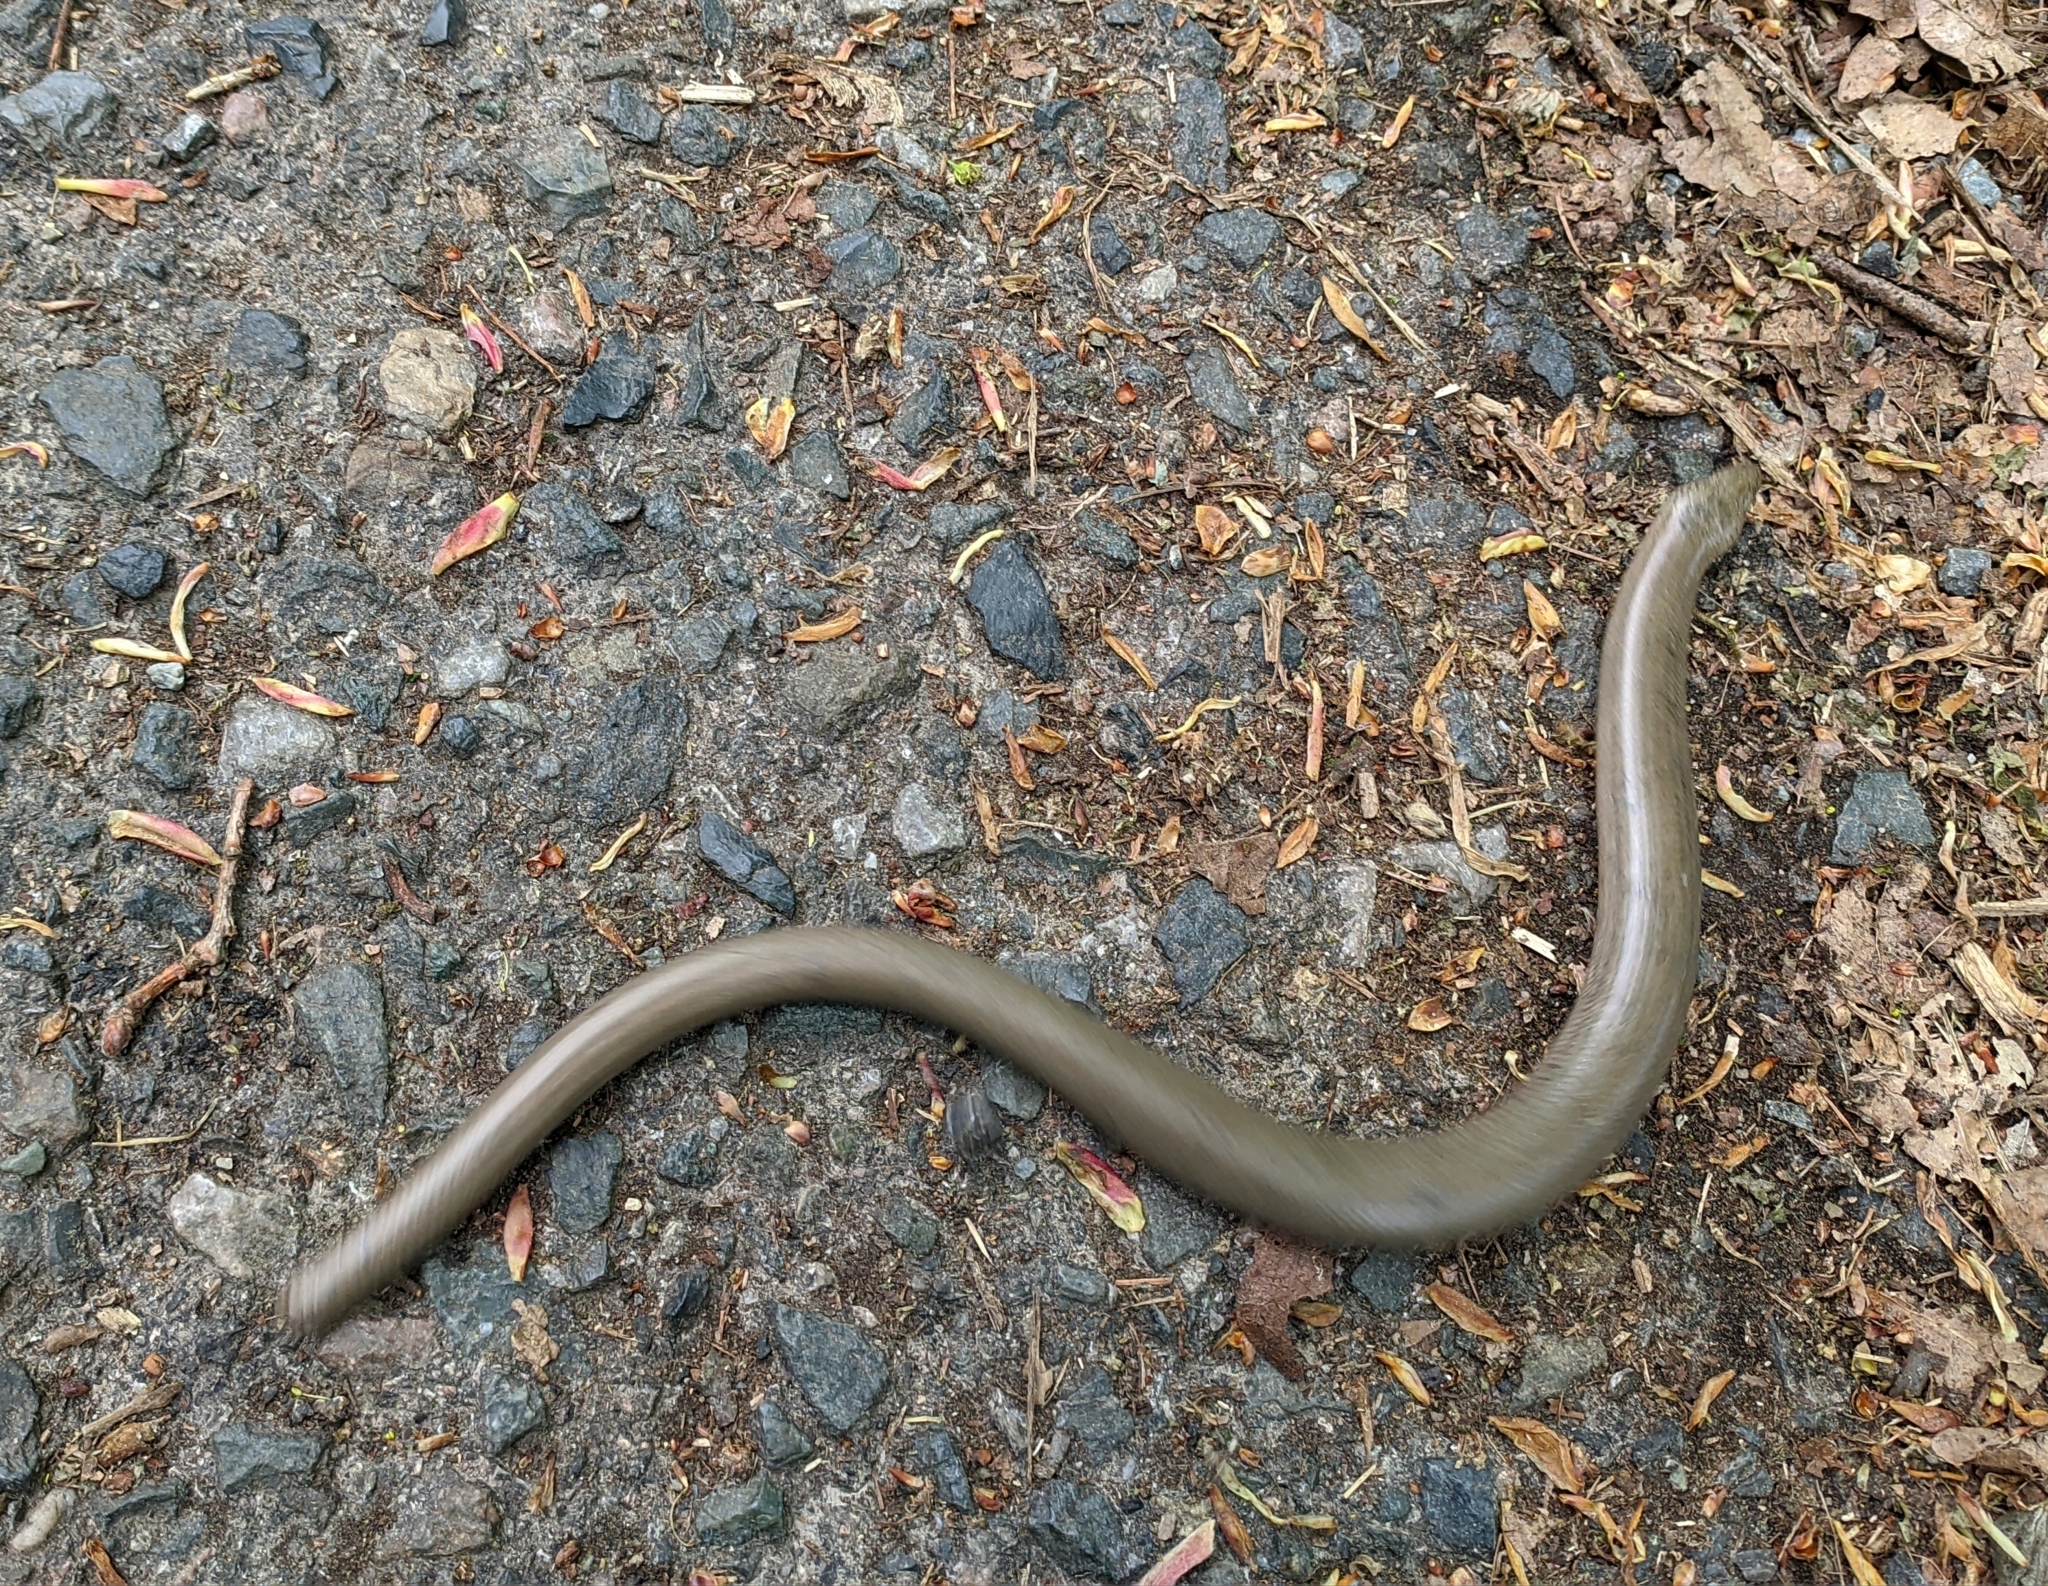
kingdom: Animalia
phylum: Chordata
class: Squamata
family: Anguidae
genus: Anguis
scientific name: Anguis fragilis
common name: Slow worm
